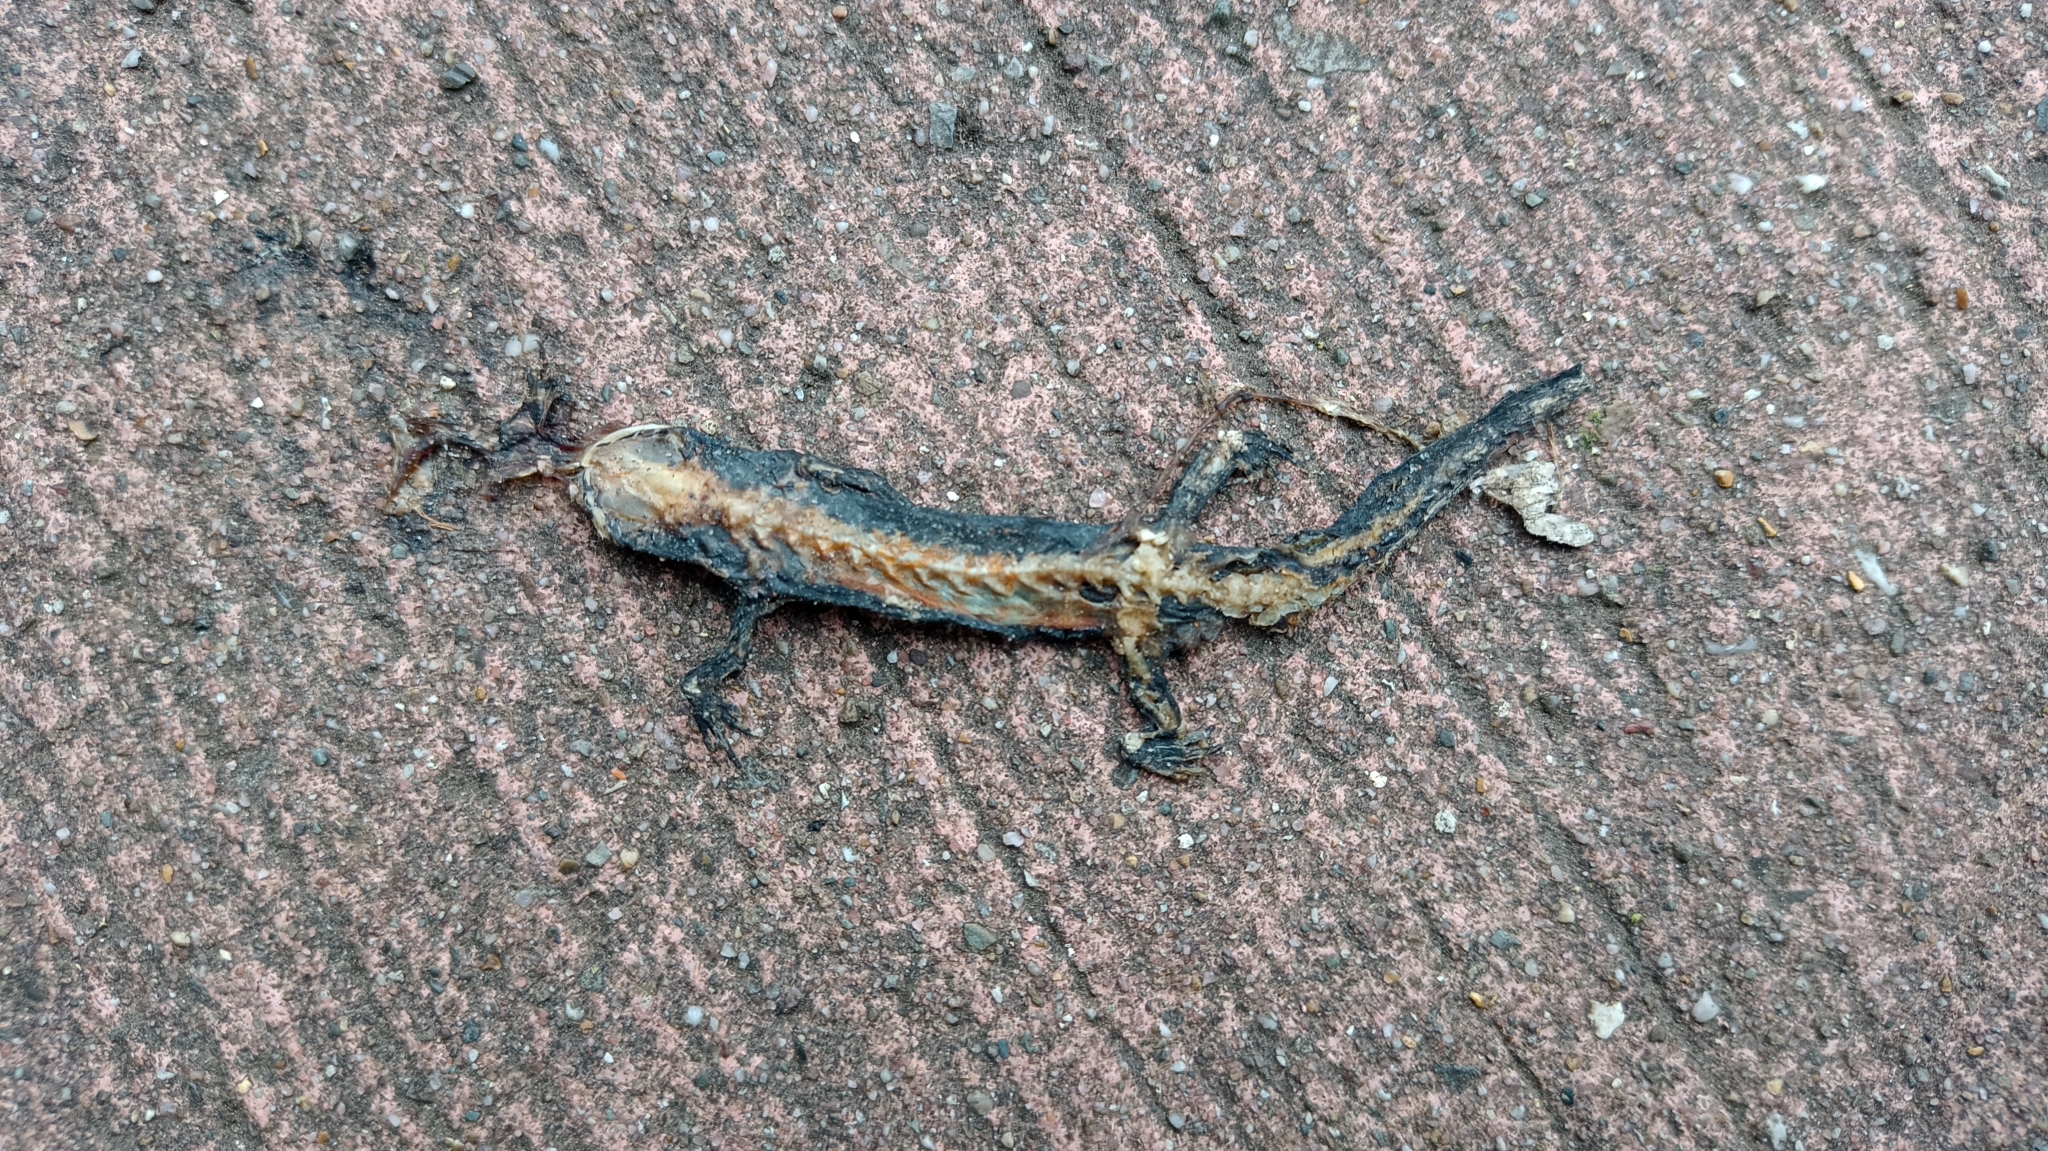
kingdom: Animalia
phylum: Chordata
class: Amphibia
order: Caudata
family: Salamandridae
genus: Ichthyosaura
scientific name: Ichthyosaura alpestris
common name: Alpine newt
